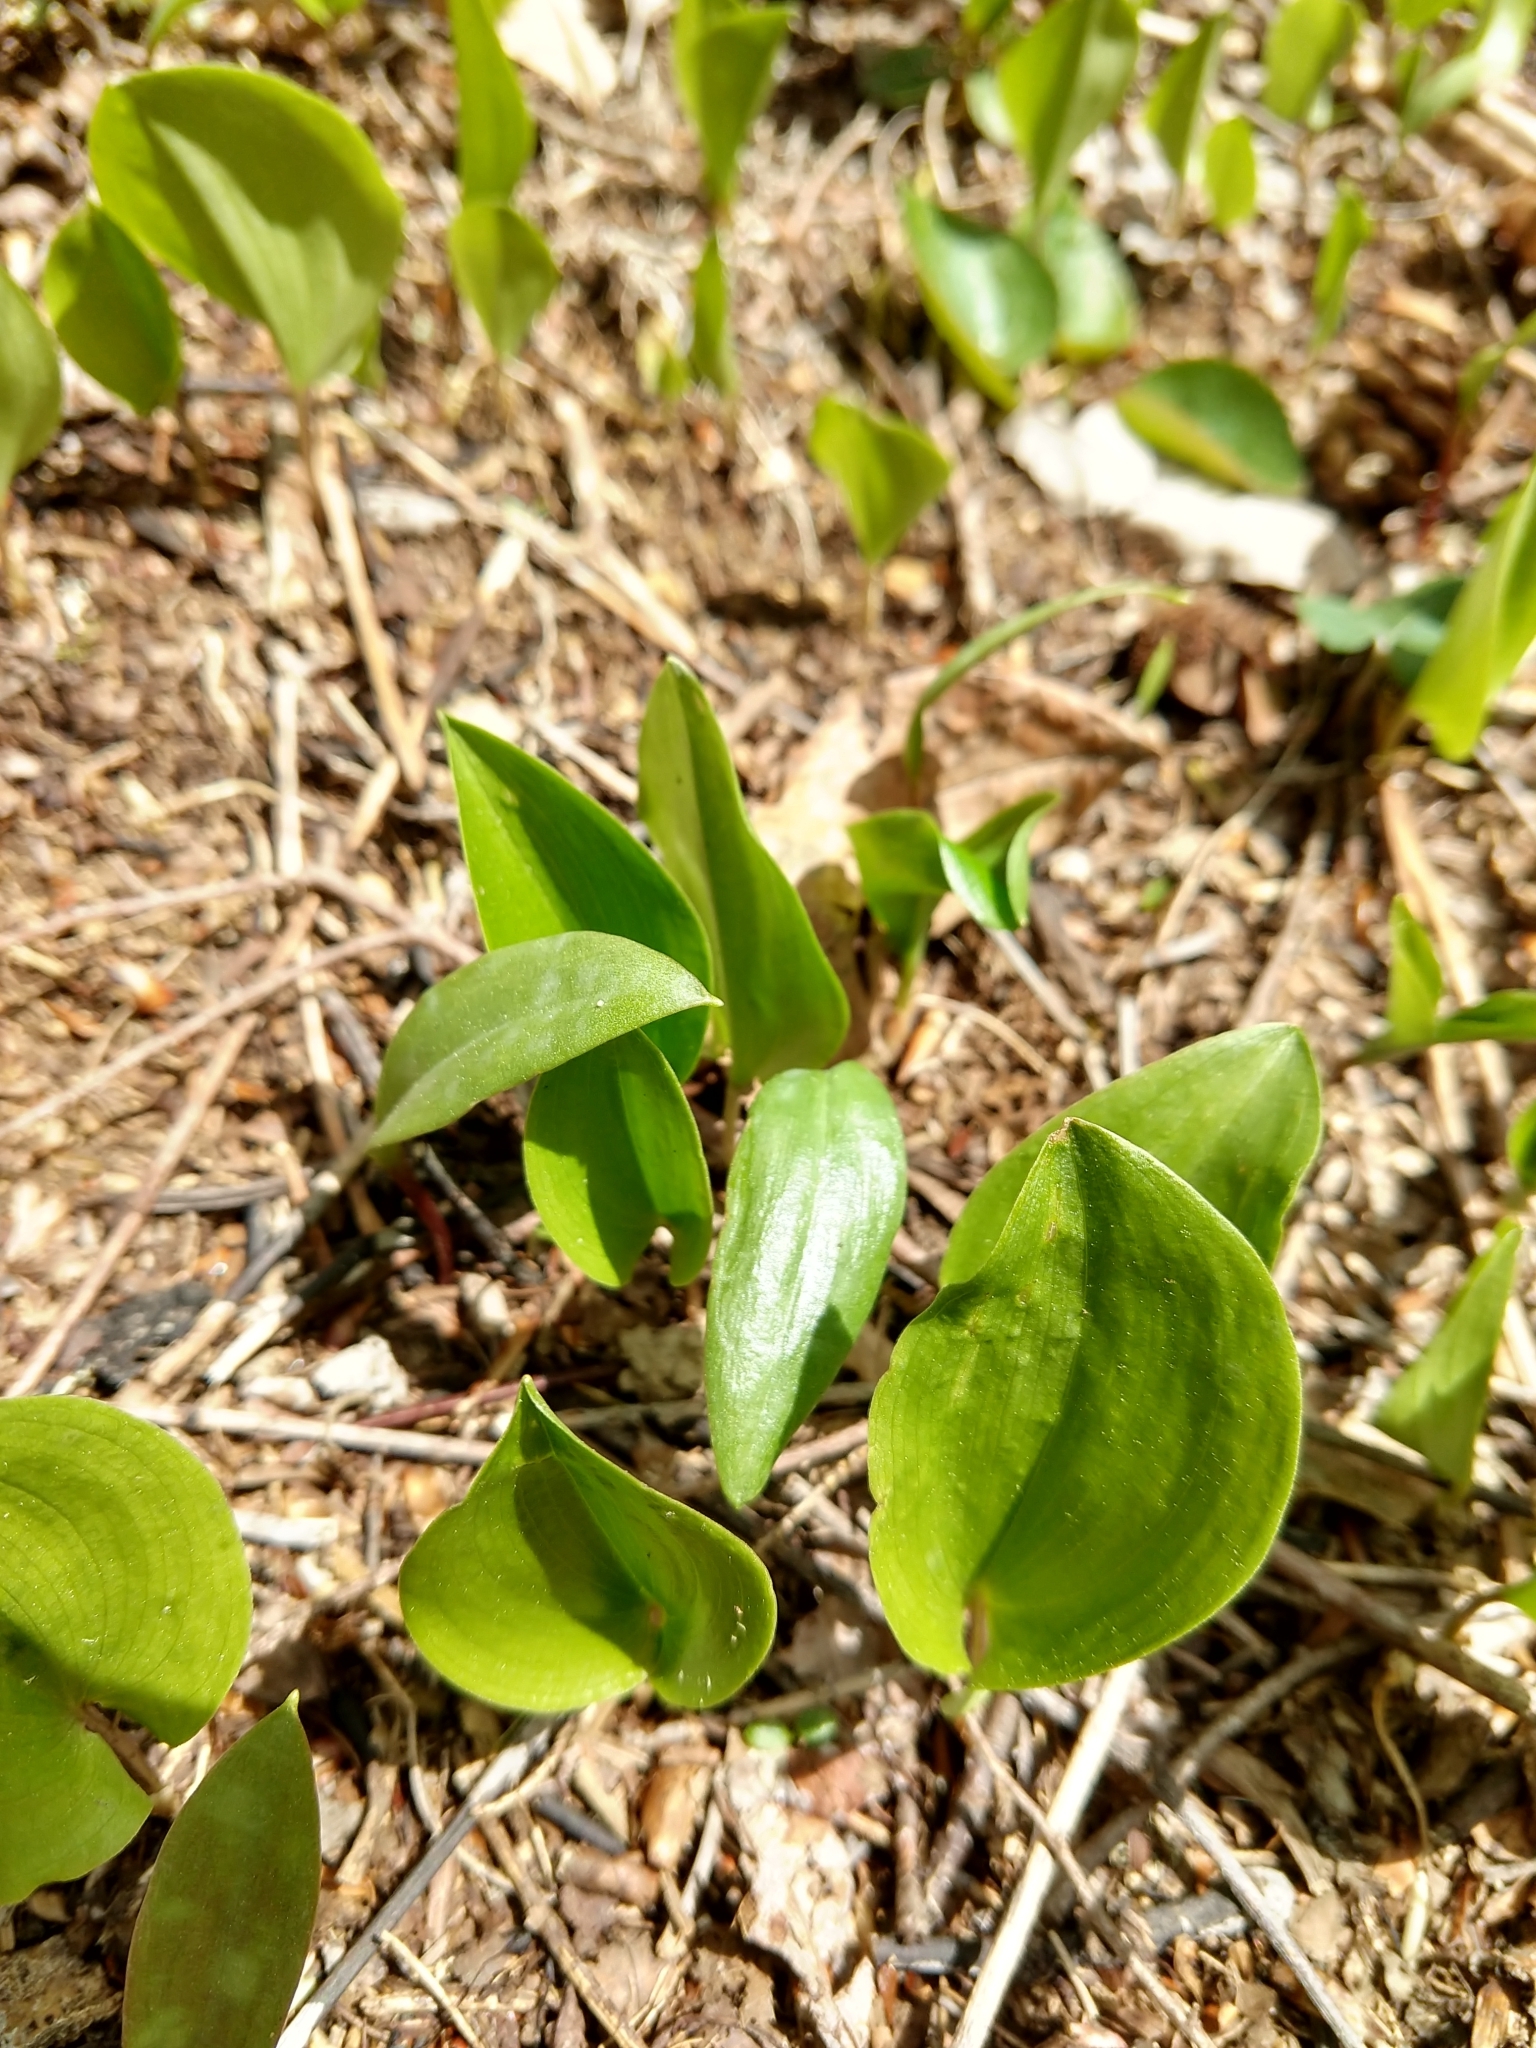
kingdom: Plantae
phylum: Tracheophyta
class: Liliopsida
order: Asparagales
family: Asparagaceae
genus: Maianthemum
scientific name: Maianthemum canadense
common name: False lily-of-the-valley
